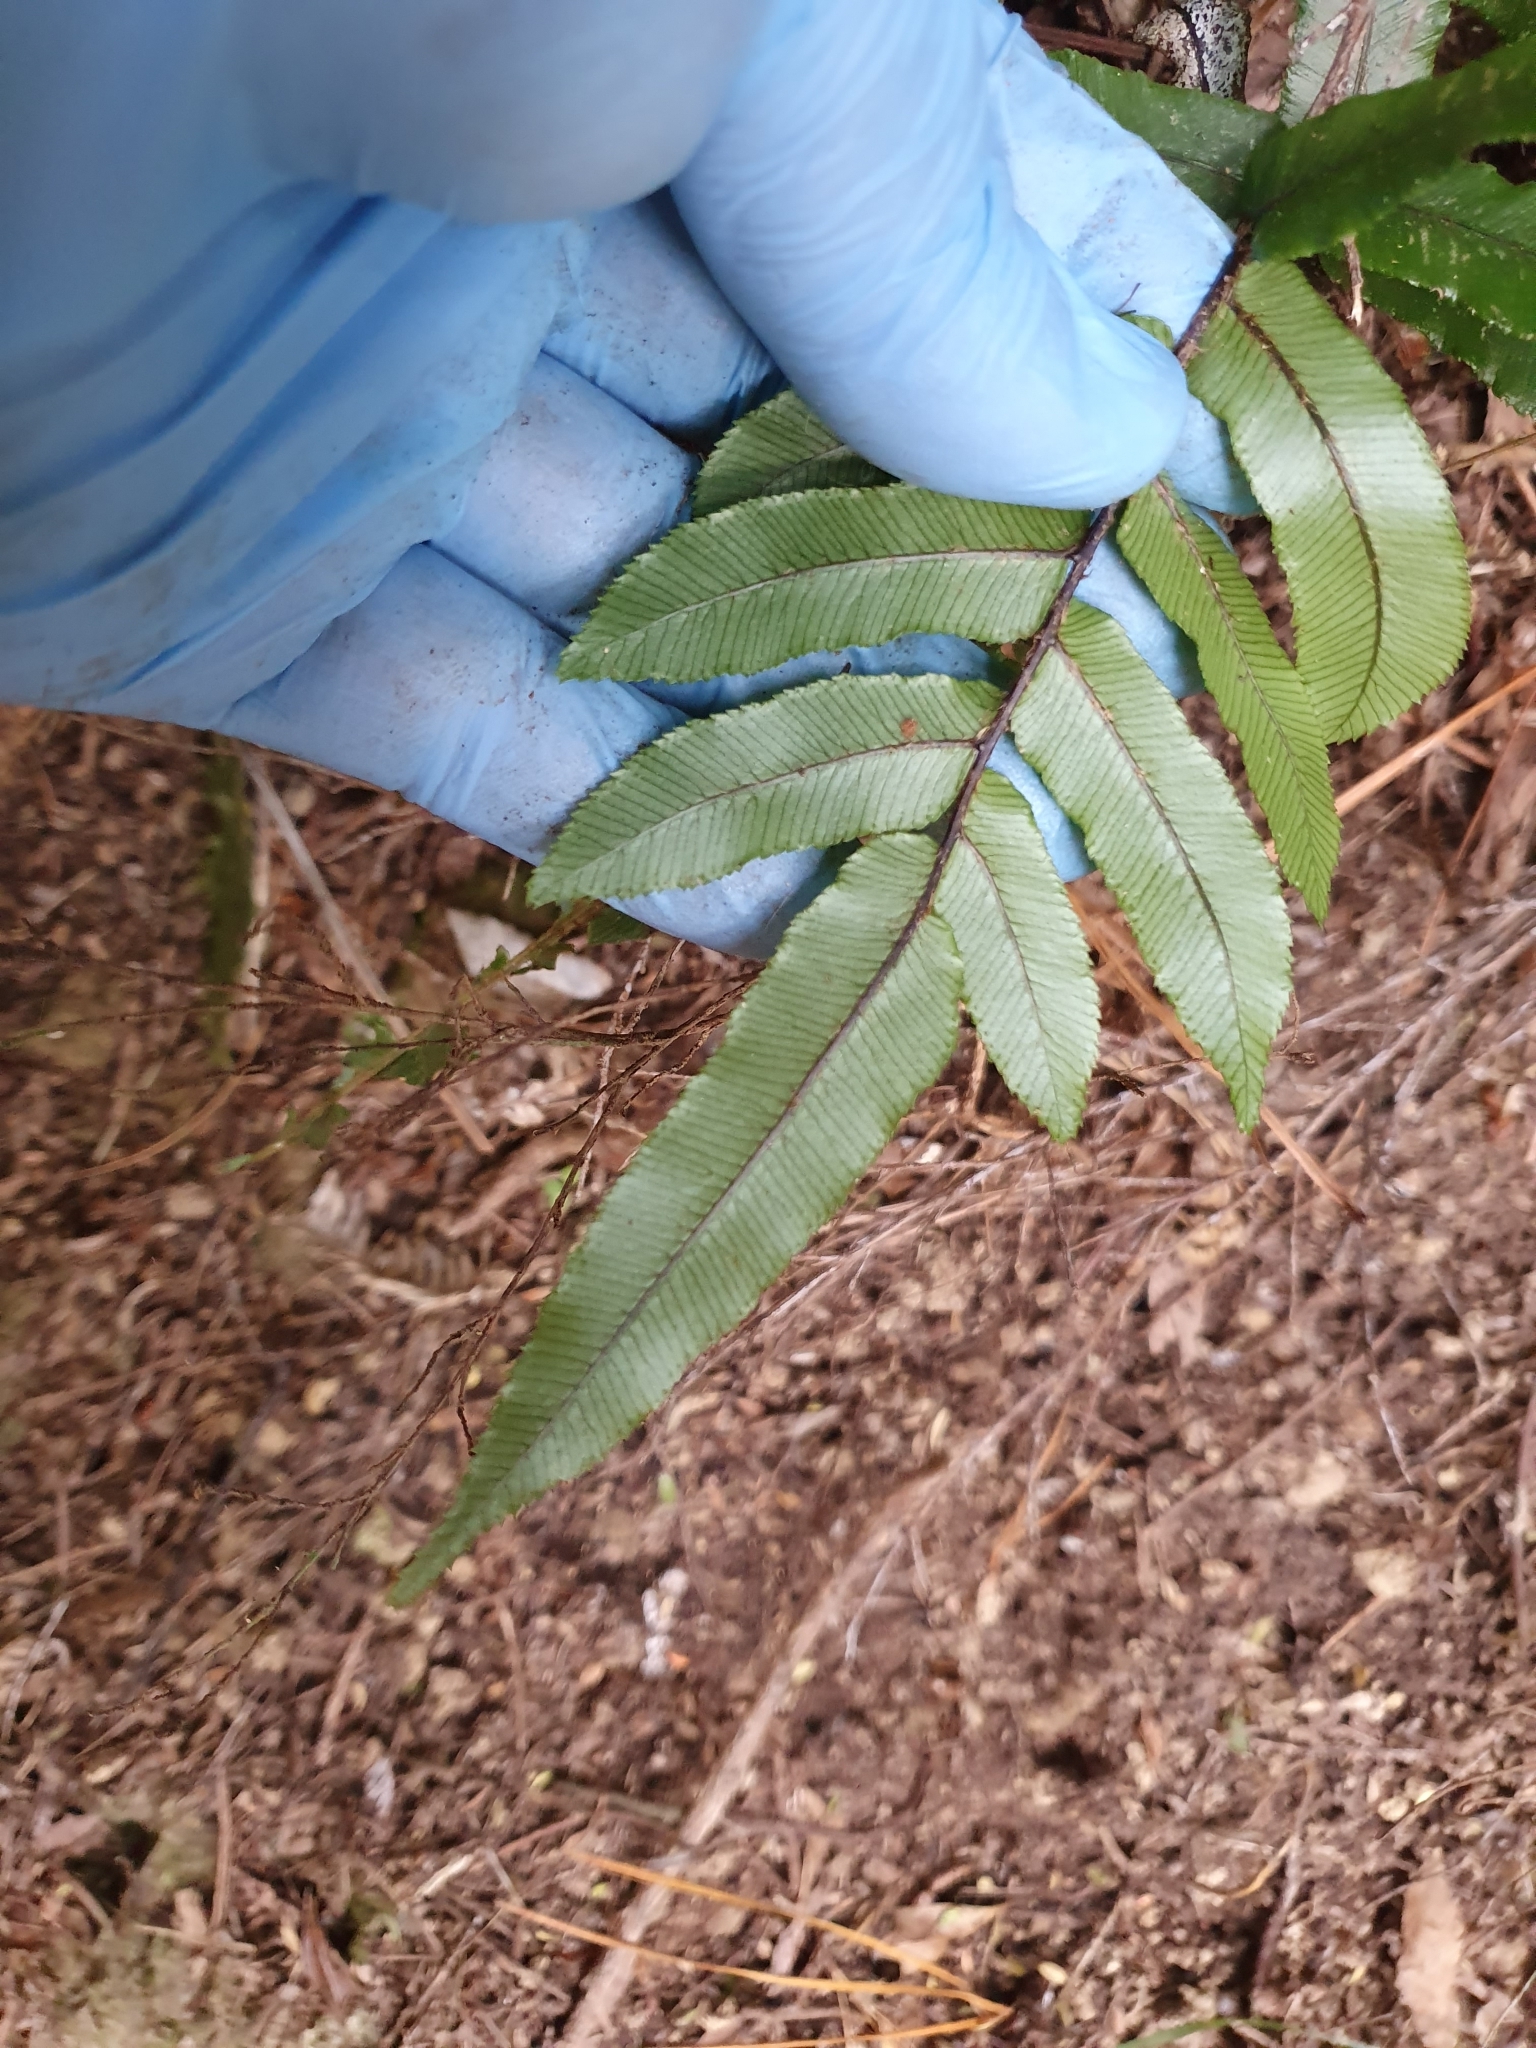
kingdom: Plantae
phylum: Tracheophyta
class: Polypodiopsida
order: Polypodiales
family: Blechnaceae
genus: Parablechnum
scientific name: Parablechnum procerum
